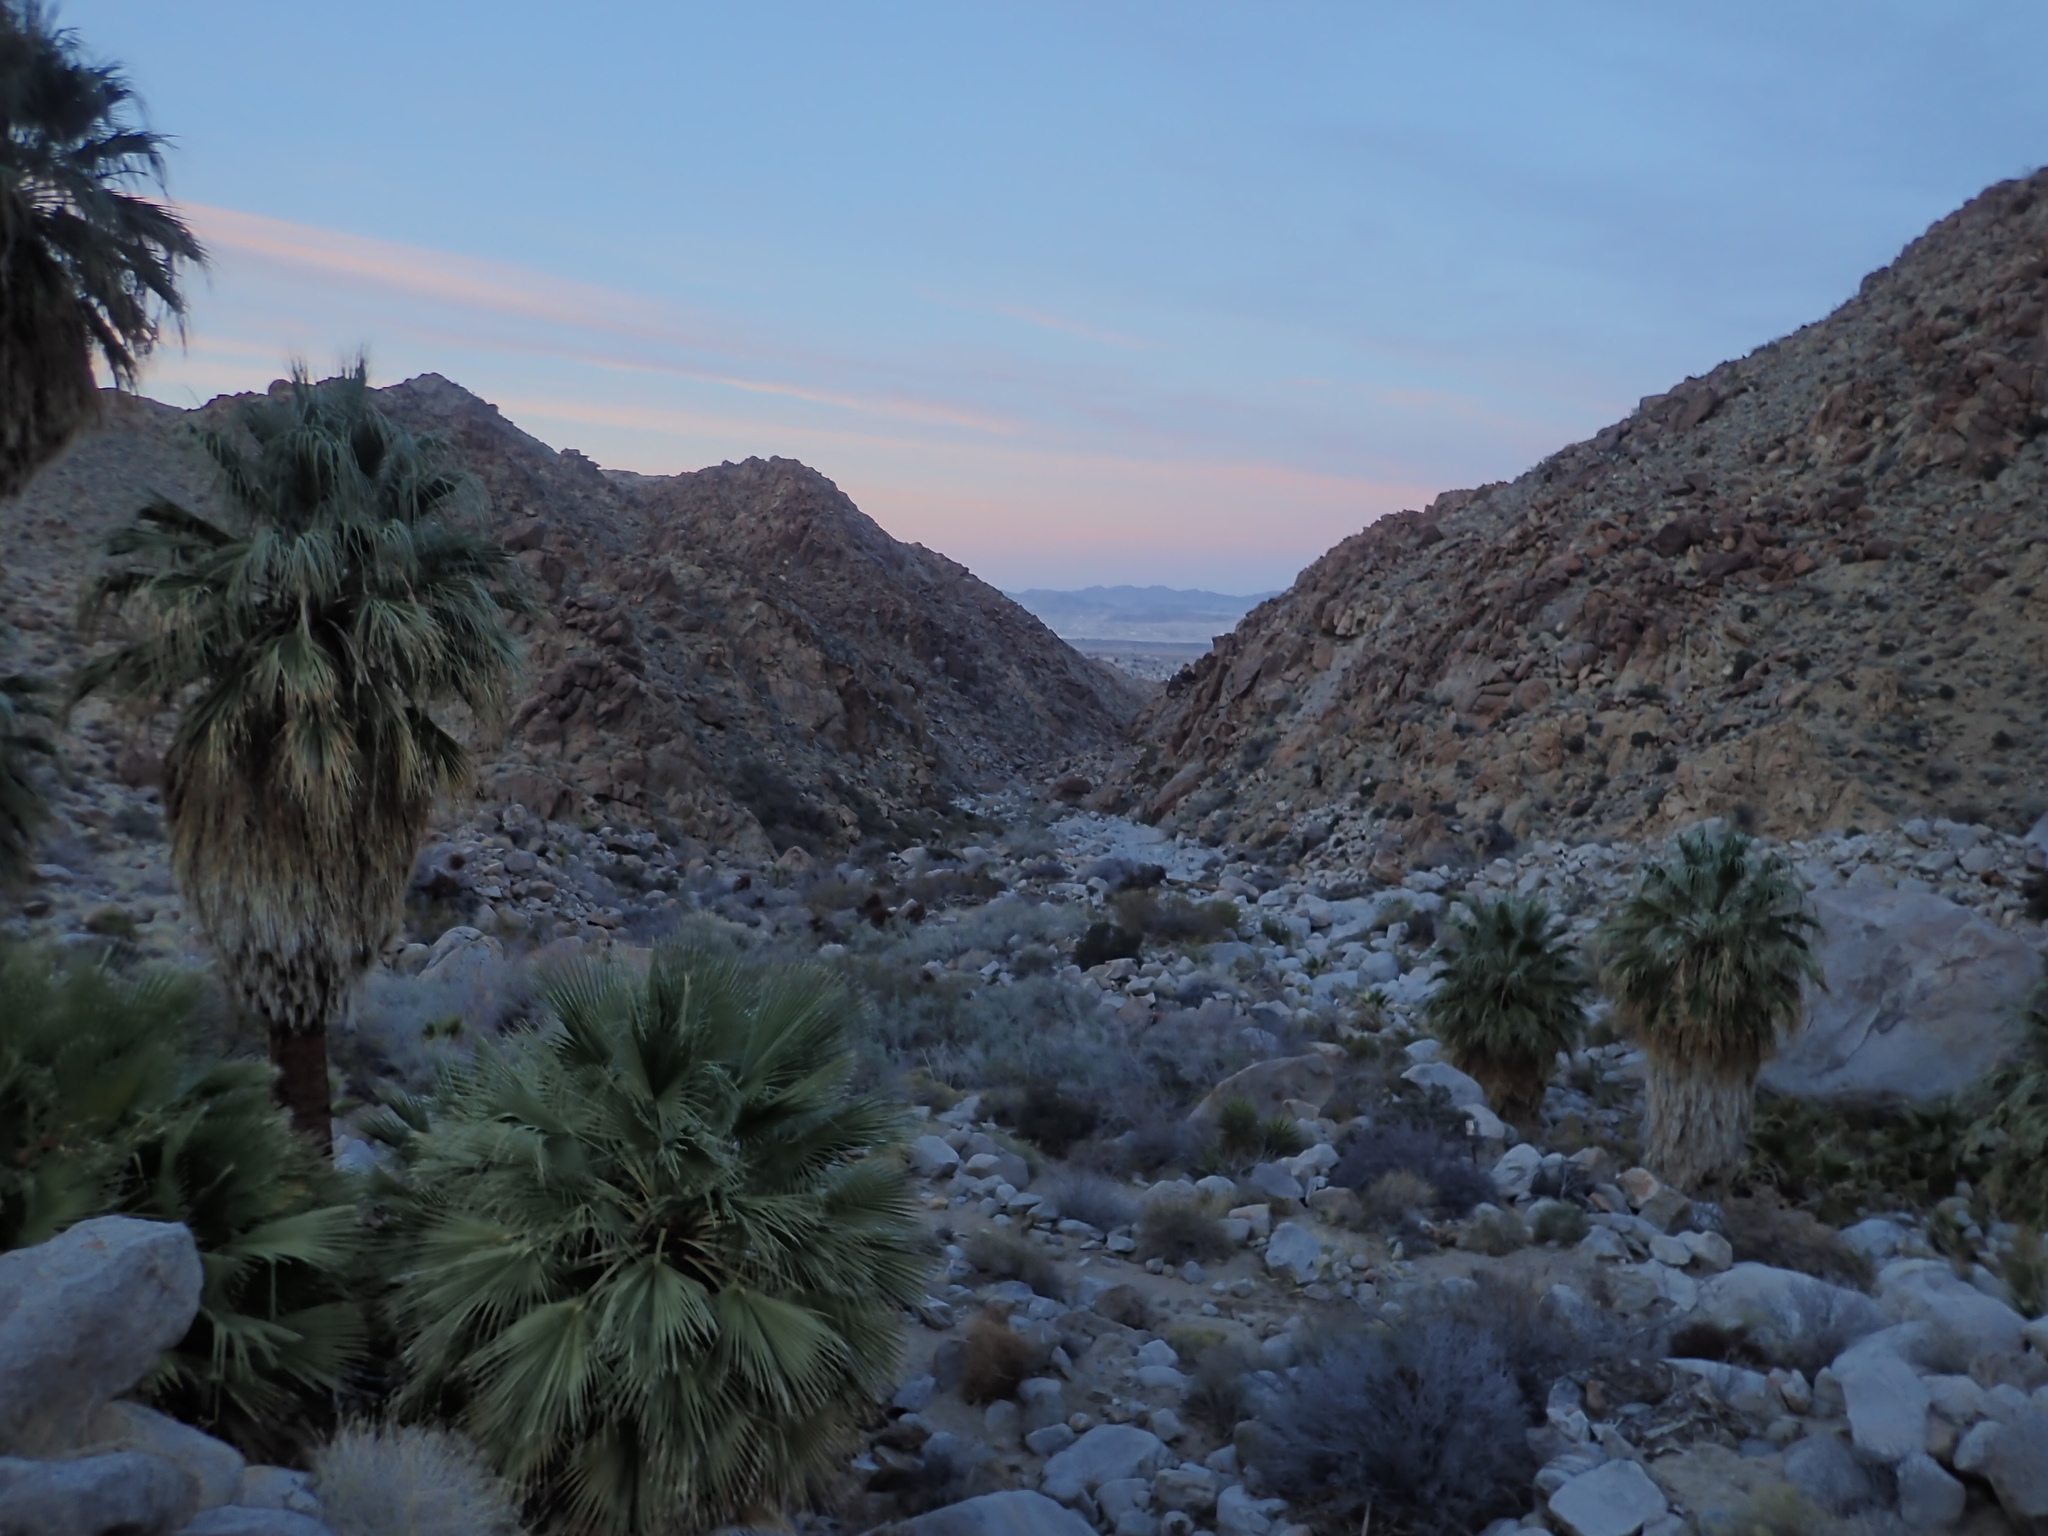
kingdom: Plantae
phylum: Tracheophyta
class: Liliopsida
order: Arecales
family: Arecaceae
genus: Washingtonia
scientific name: Washingtonia filifera
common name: California fan palm
